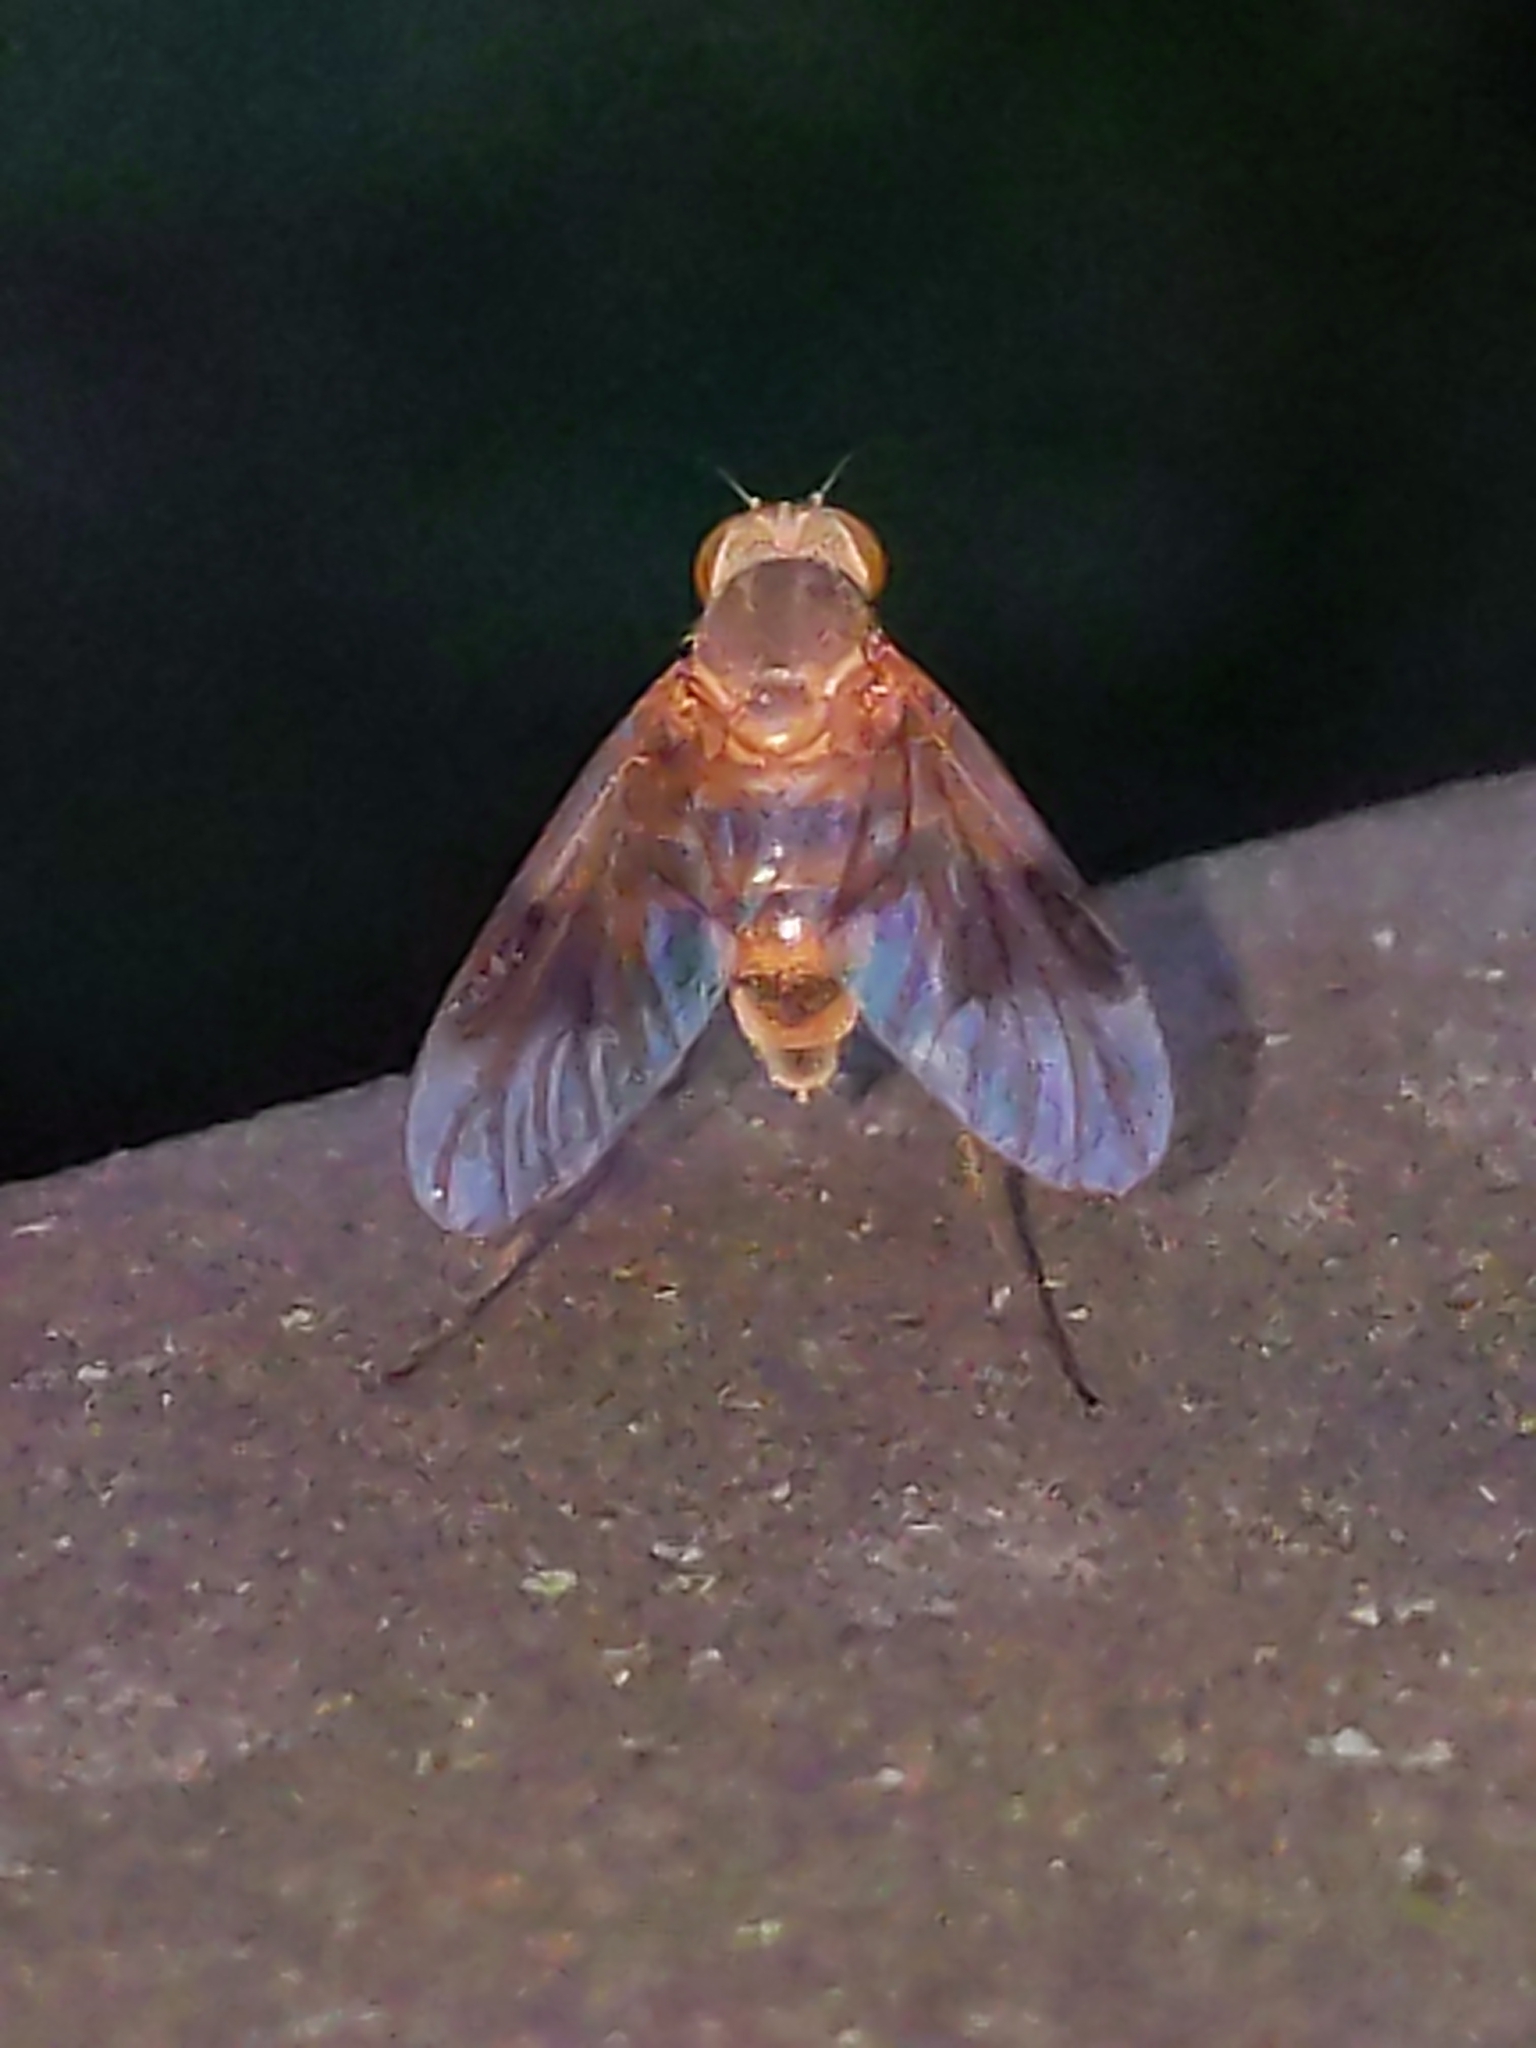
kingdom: Animalia
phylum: Arthropoda
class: Insecta
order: Diptera
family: Rhagionidae
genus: Chrysopilus
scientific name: Chrysopilus quadratus
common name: Quadrate snipe fly
